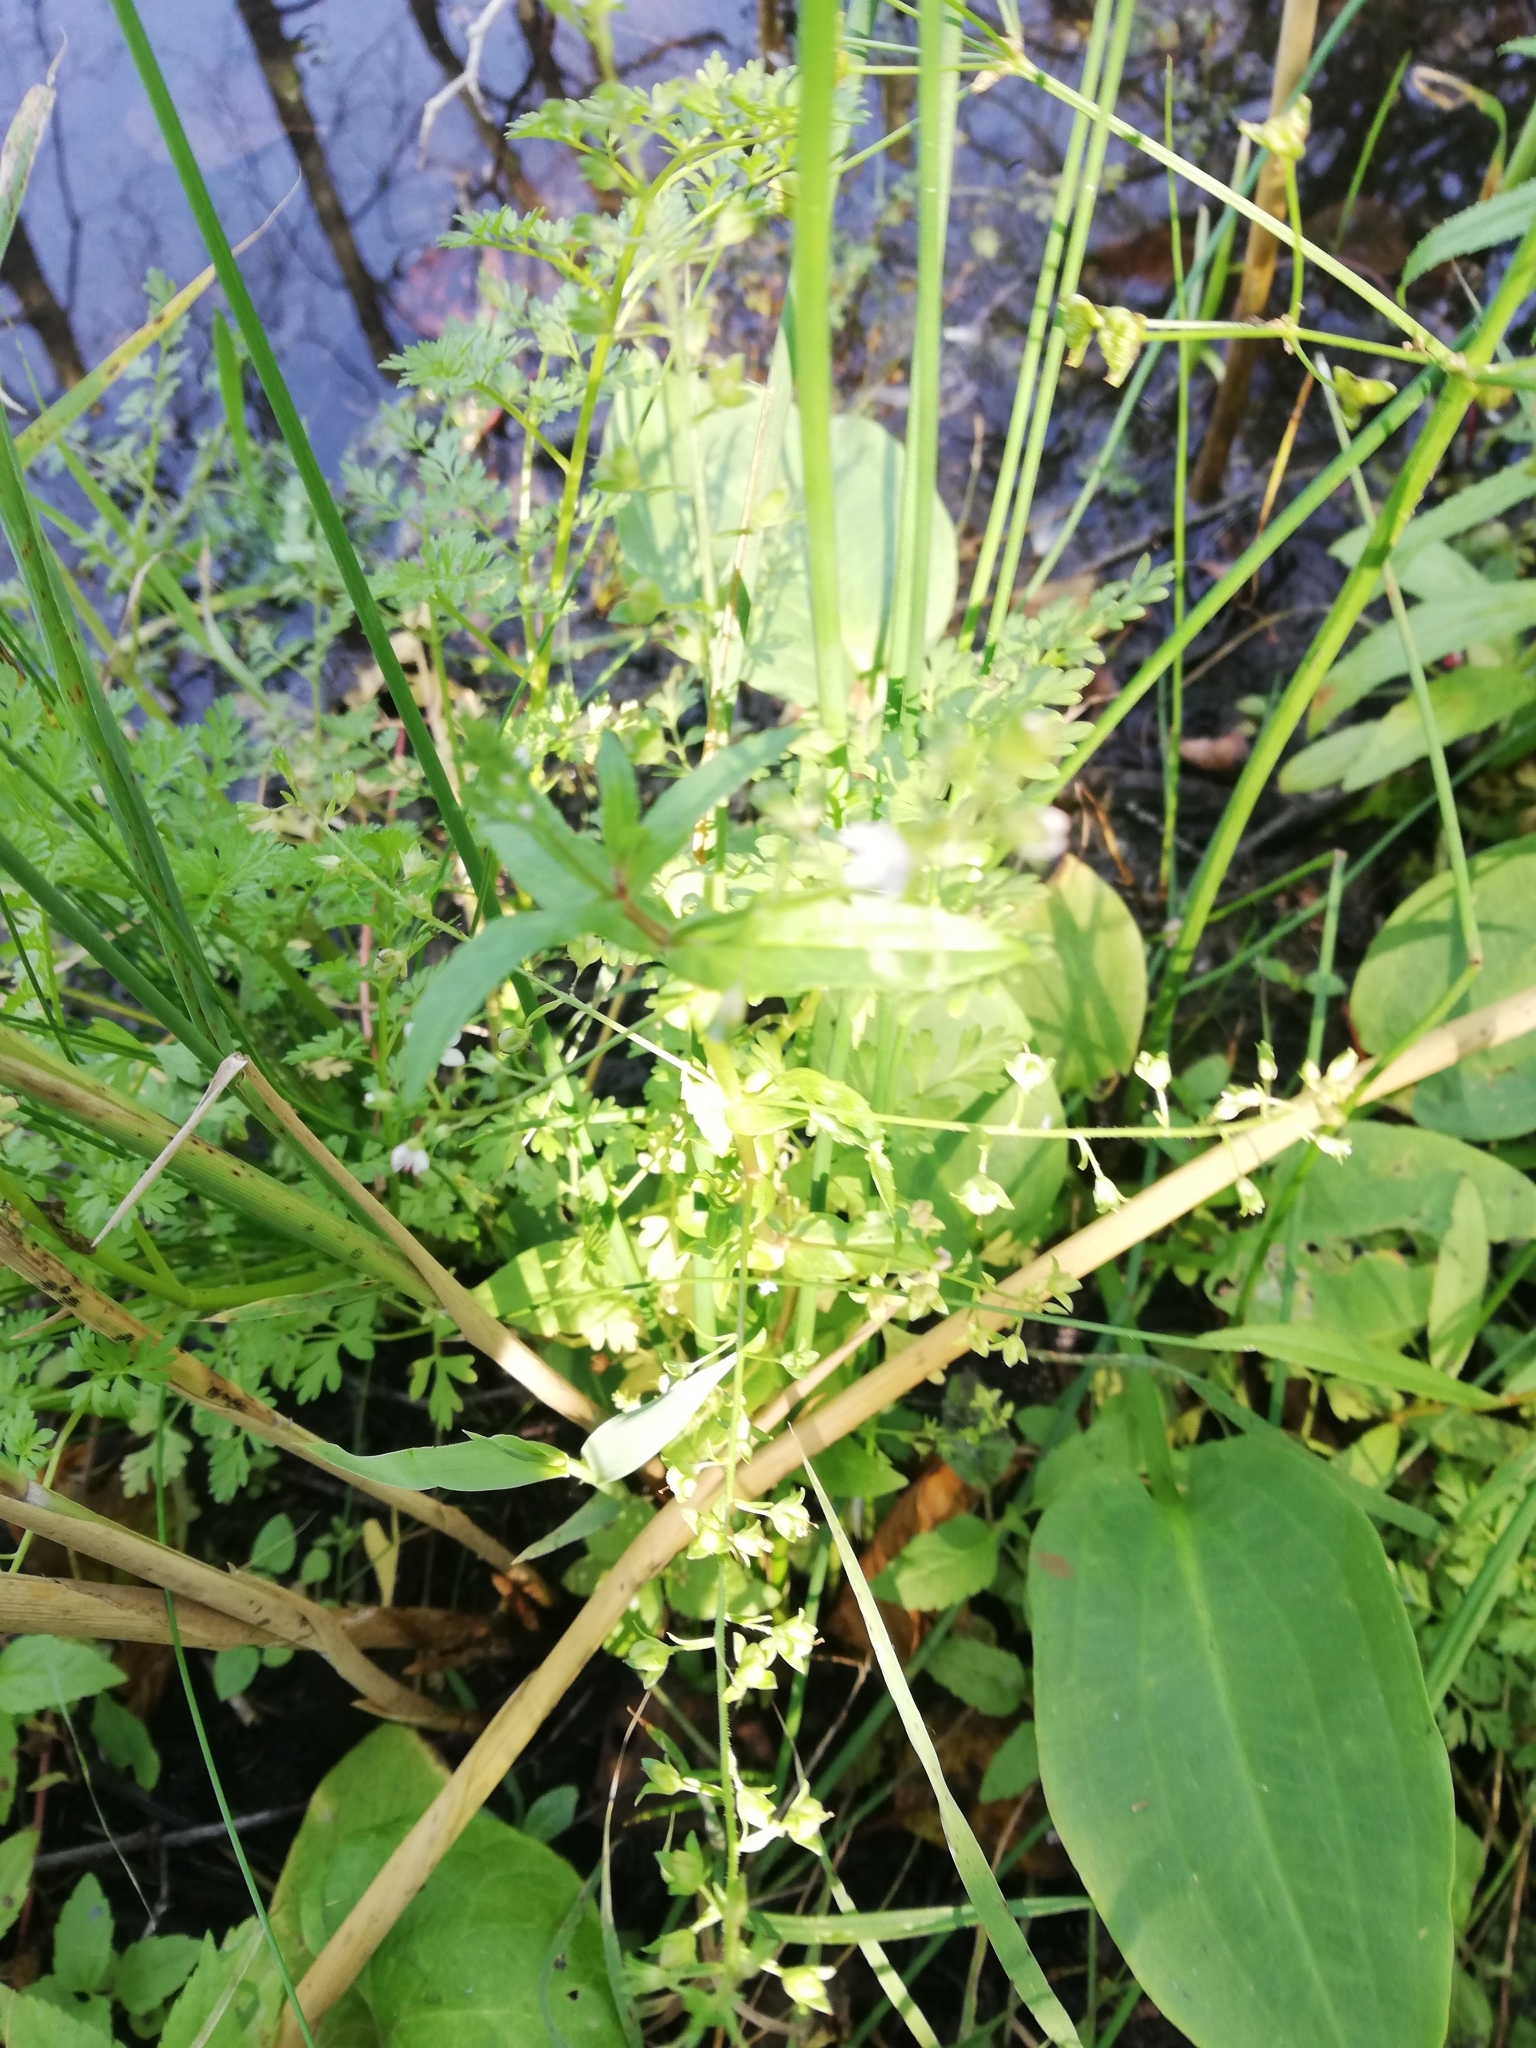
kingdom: Plantae
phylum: Tracheophyta
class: Magnoliopsida
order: Lamiales
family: Plantaginaceae
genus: Veronica
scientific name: Veronica anagallis-aquatica
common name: Water speedwell
